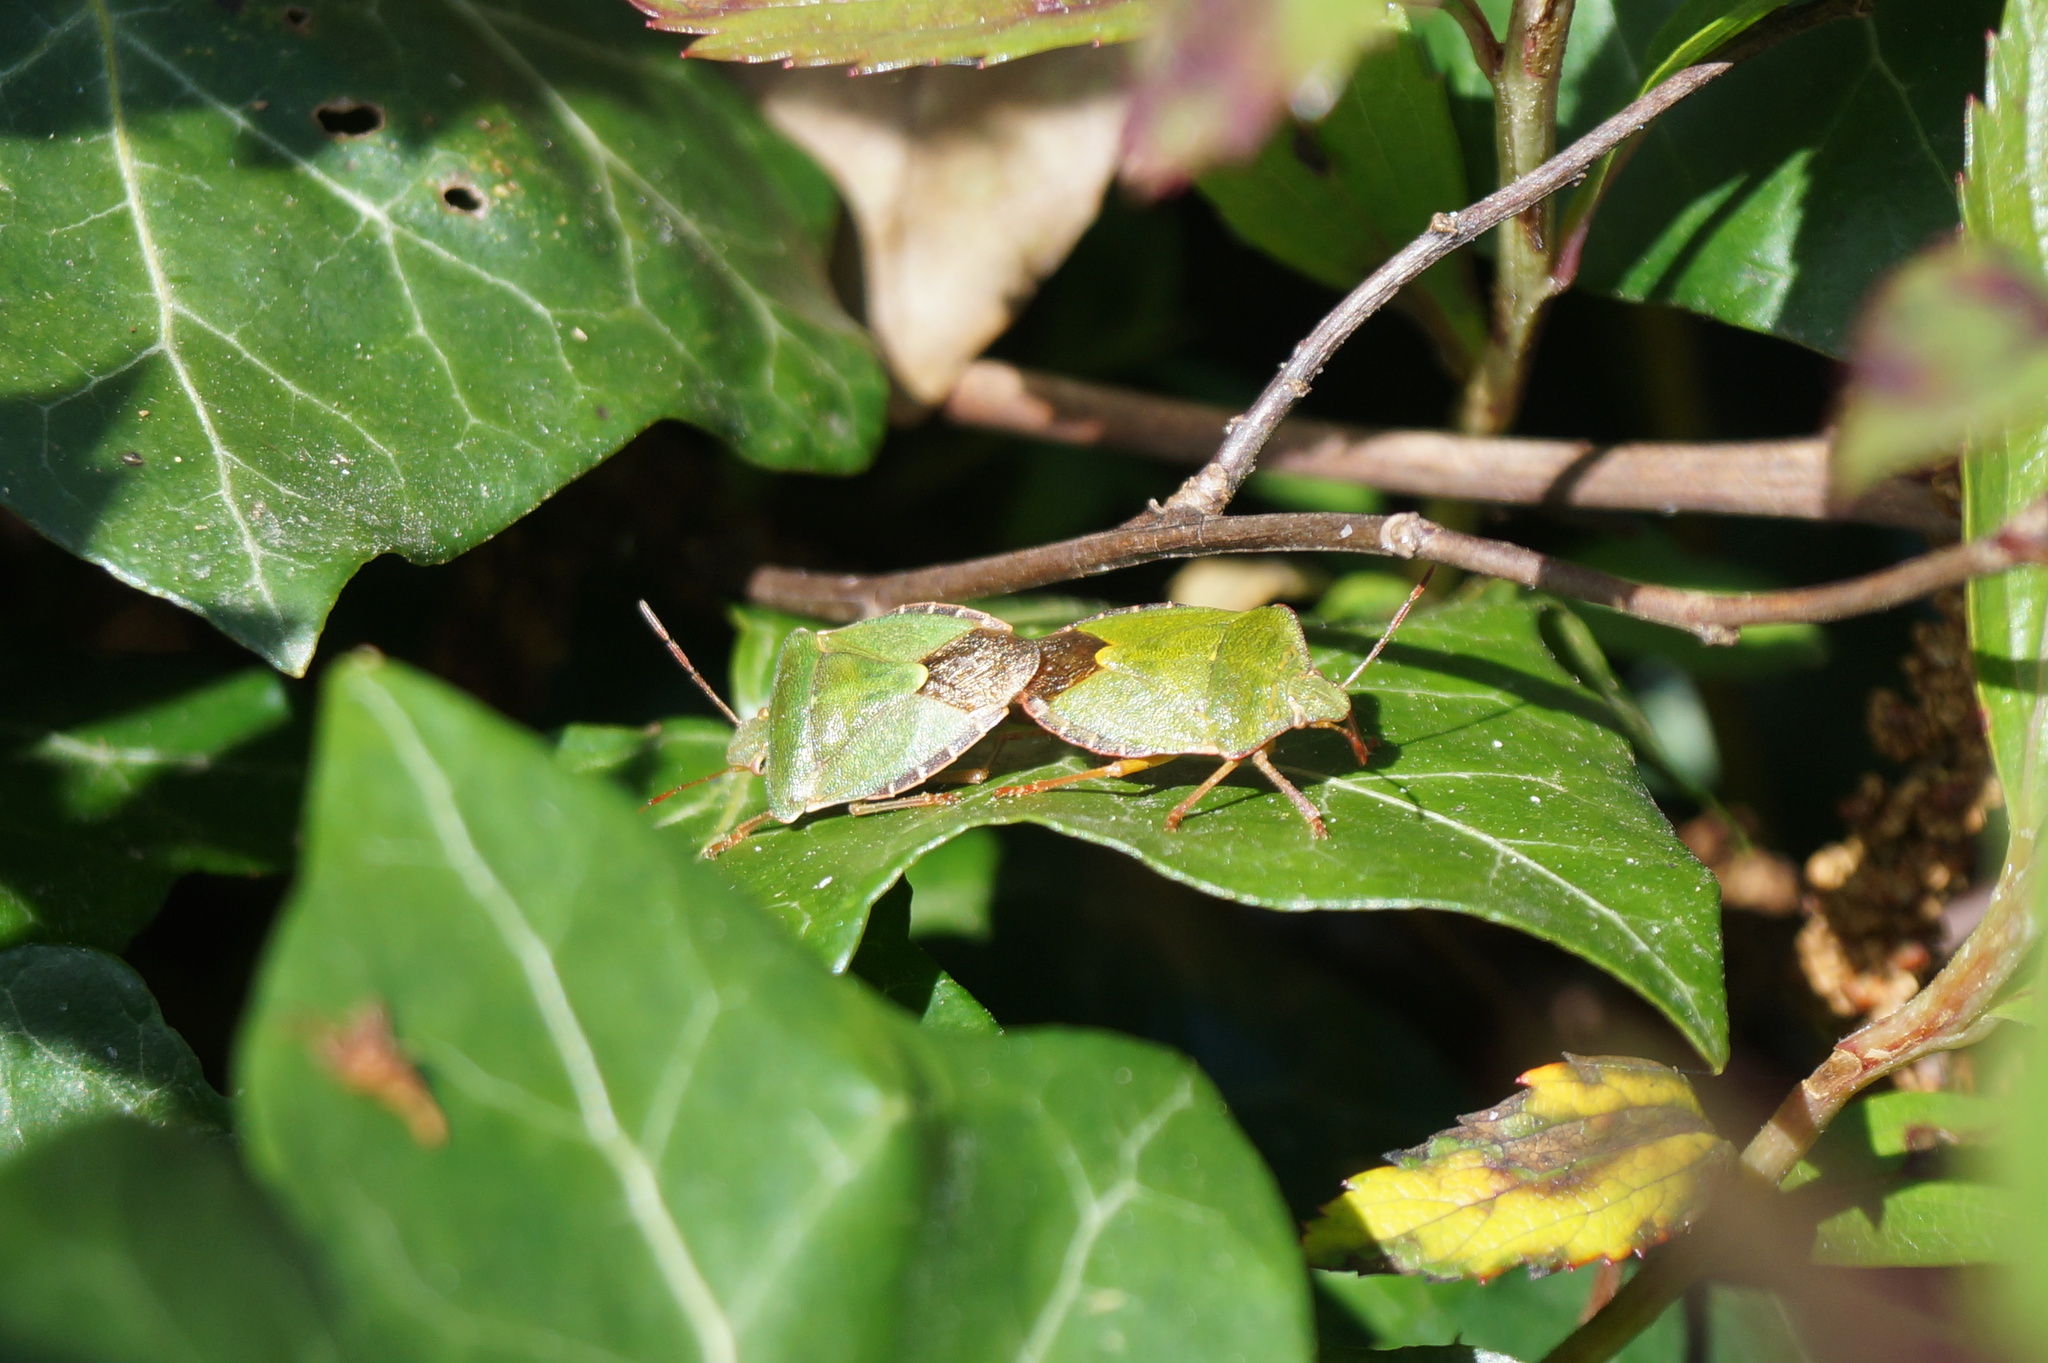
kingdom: Animalia
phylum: Arthropoda
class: Insecta
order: Hemiptera
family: Pentatomidae
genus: Palomena
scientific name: Palomena prasina
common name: Green shieldbug
